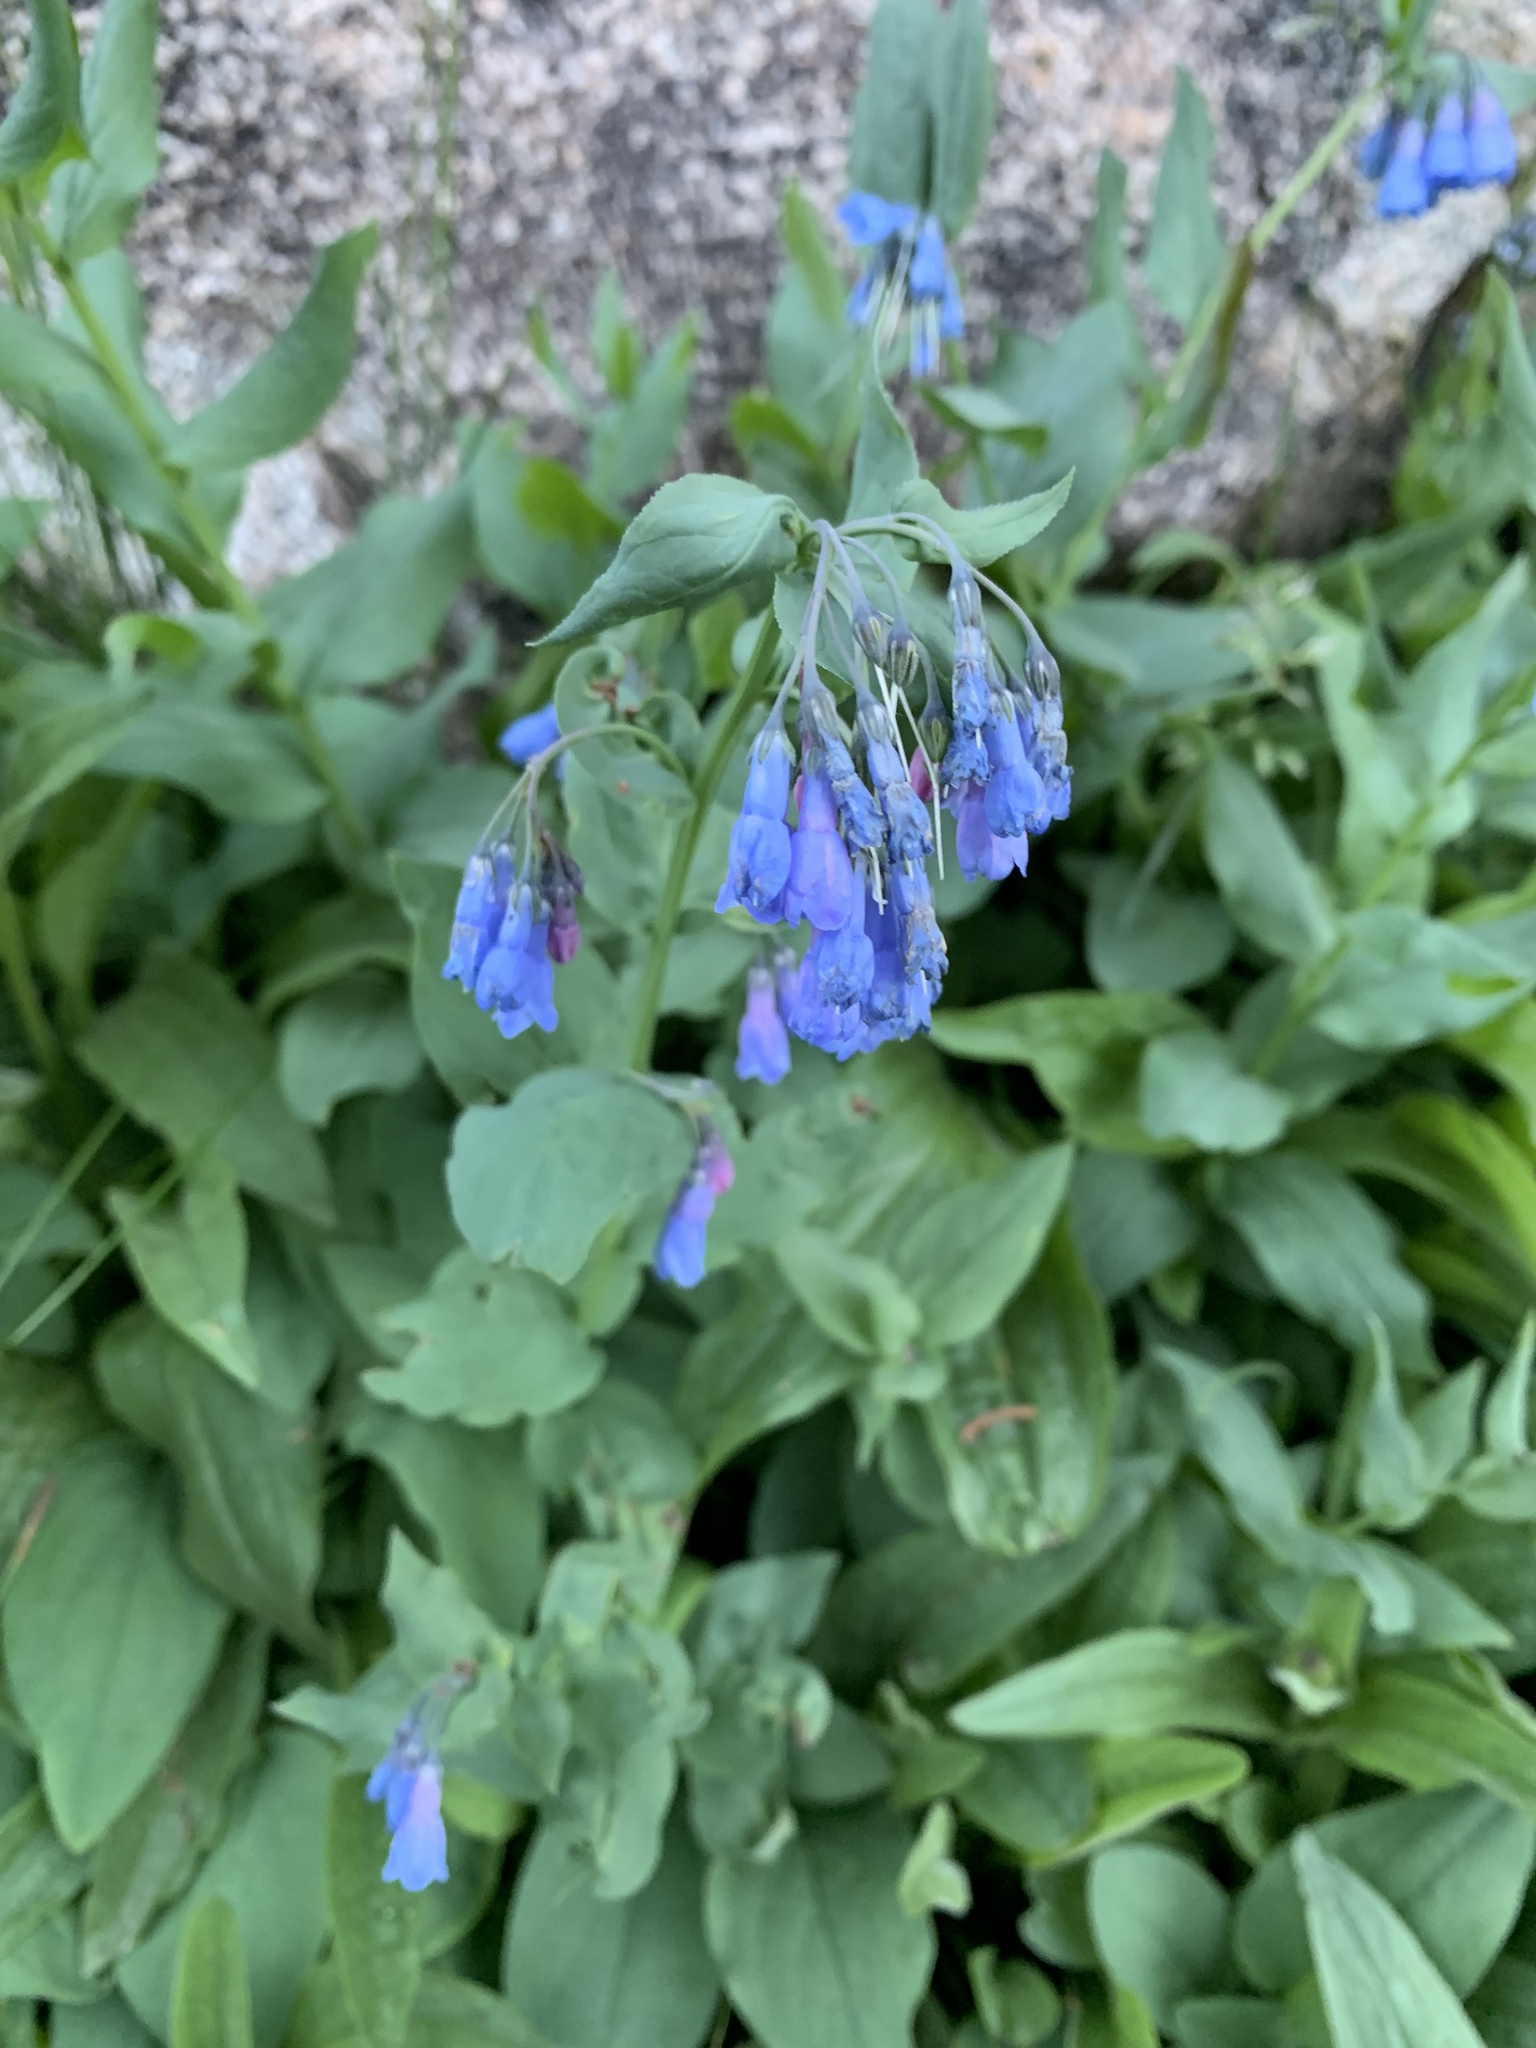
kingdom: Plantae
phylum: Tracheophyta
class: Magnoliopsida
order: Boraginales
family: Boraginaceae
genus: Mertensia
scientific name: Mertensia ciliata
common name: Tall chiming-bells
